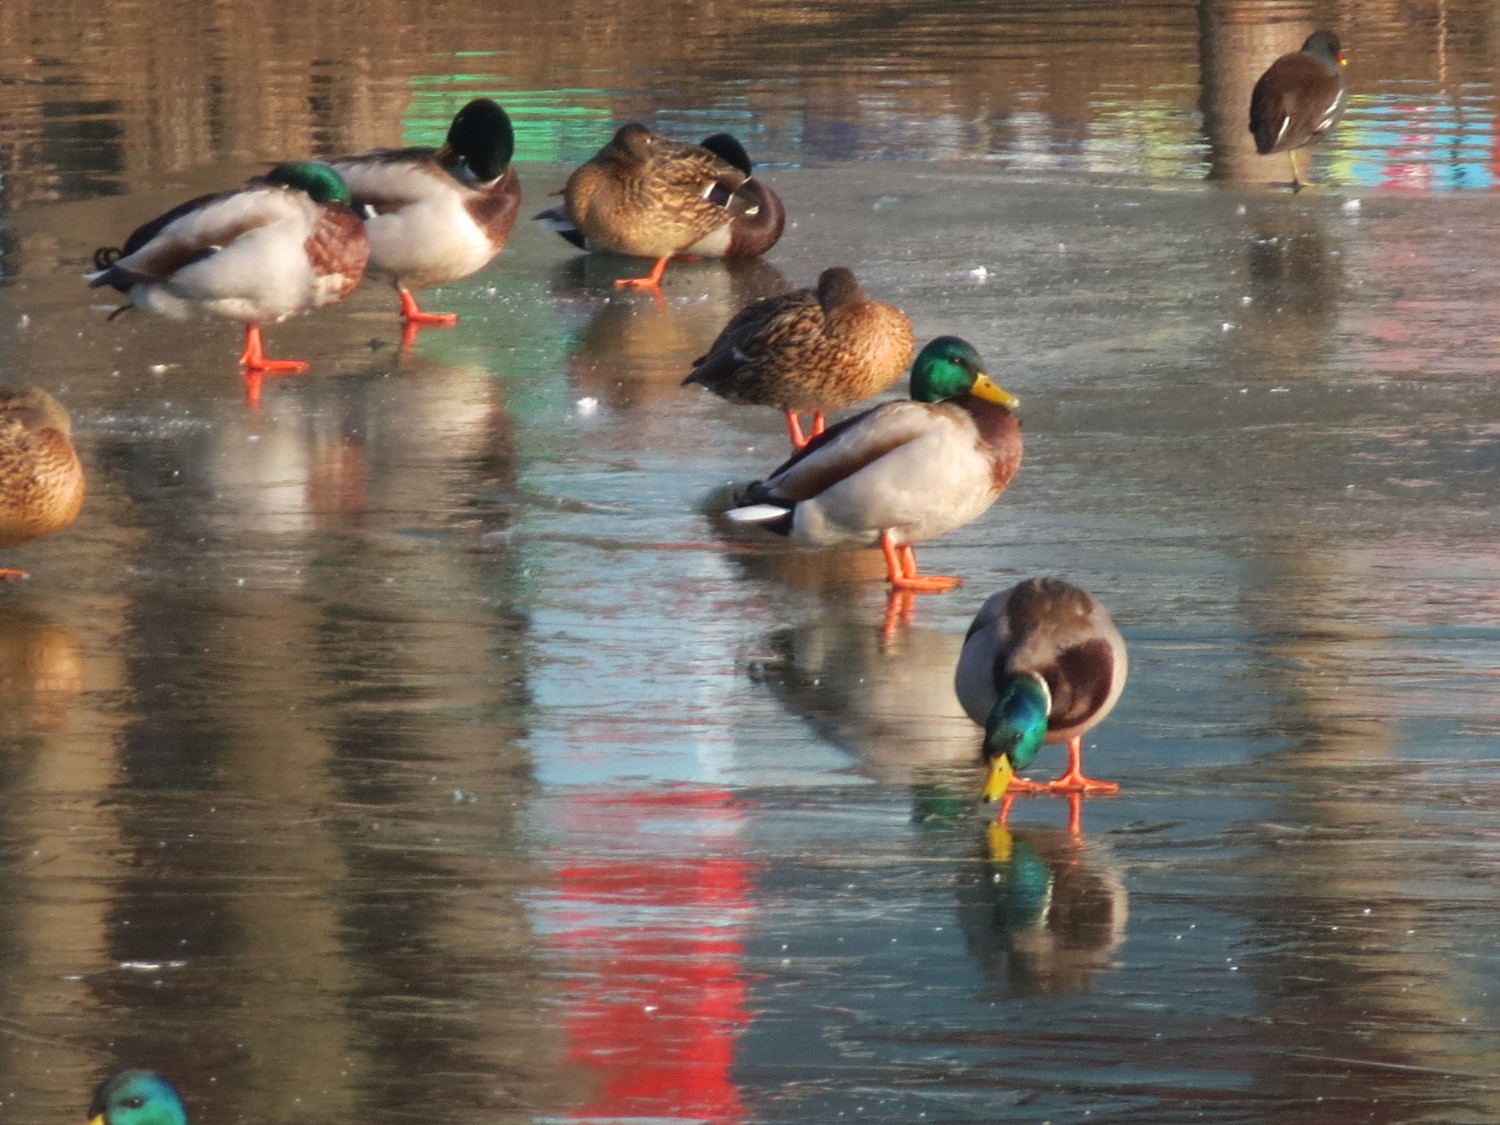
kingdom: Animalia
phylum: Chordata
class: Aves
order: Anseriformes
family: Anatidae
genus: Anas
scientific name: Anas platyrhynchos
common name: Mallard
